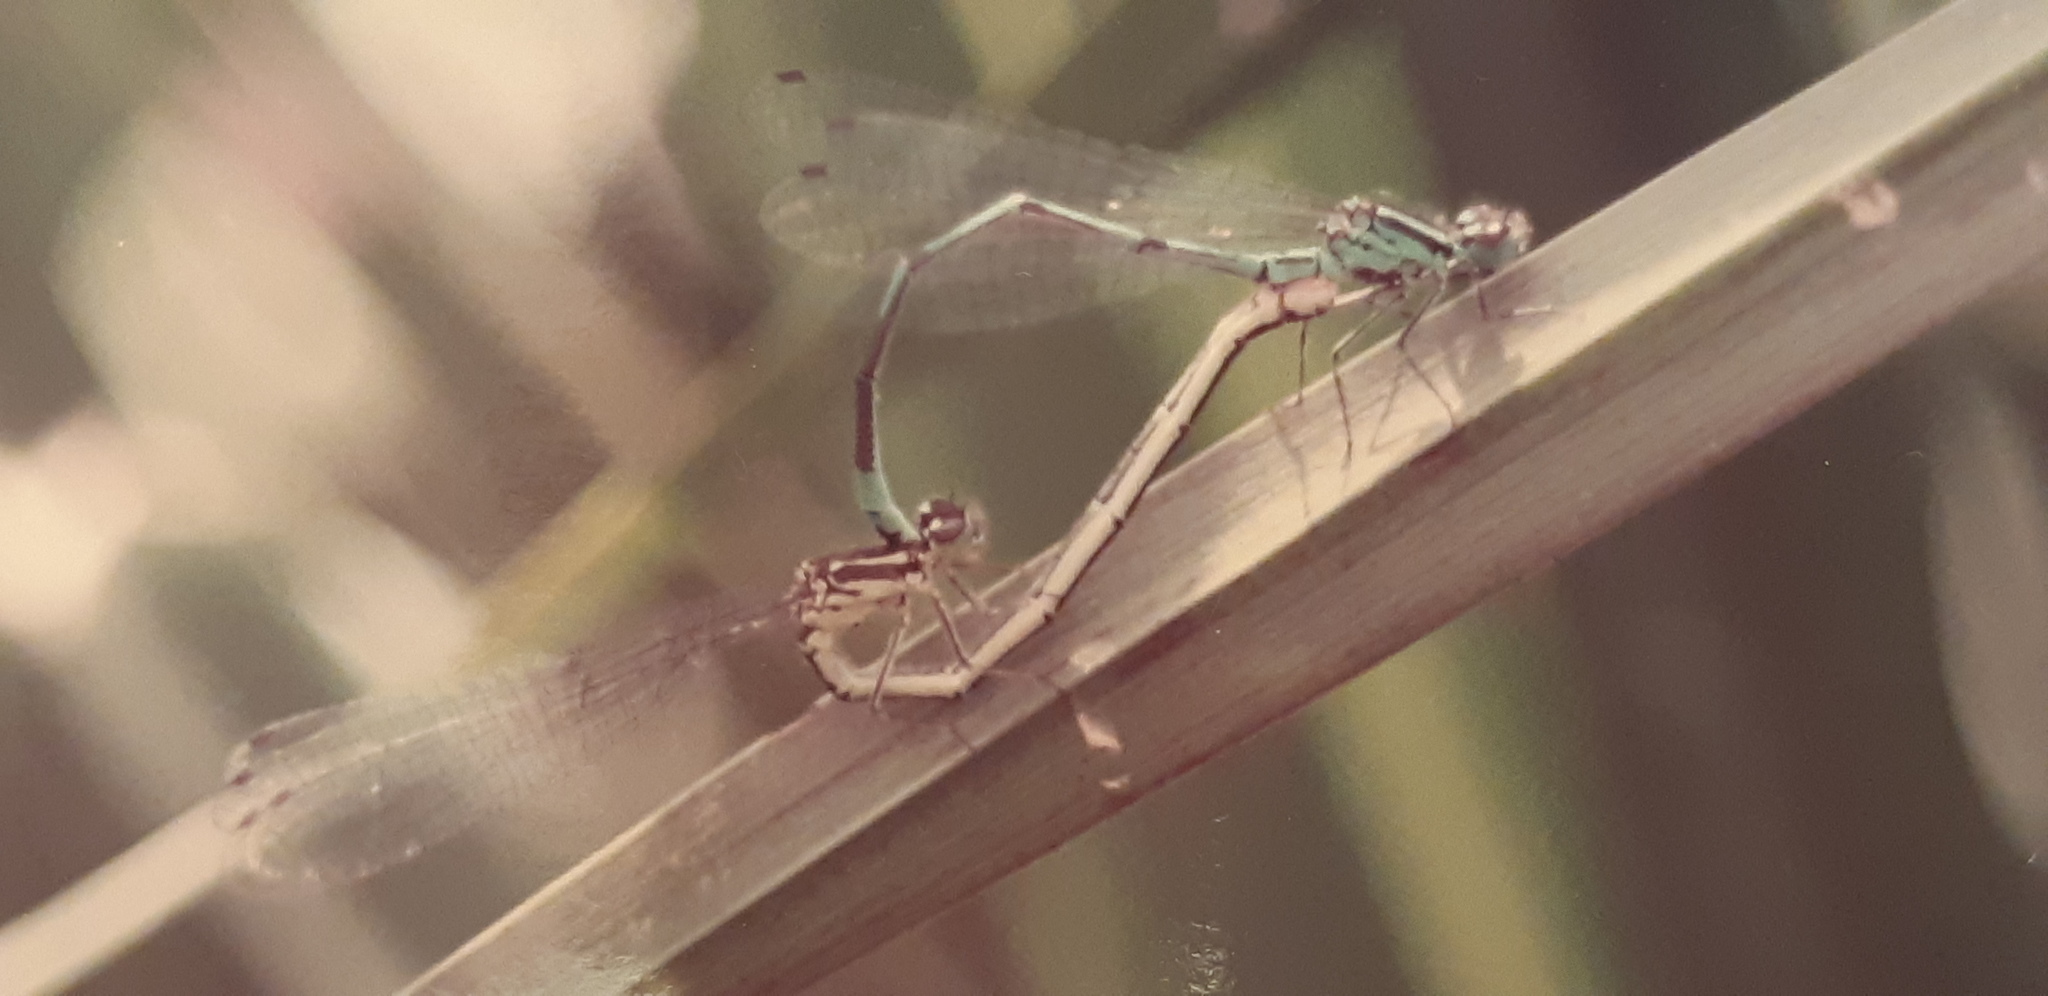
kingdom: Animalia
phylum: Arthropoda
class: Insecta
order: Odonata
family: Coenagrionidae
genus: Coenagrion
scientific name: Coenagrion puella
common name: Azure damselfly
